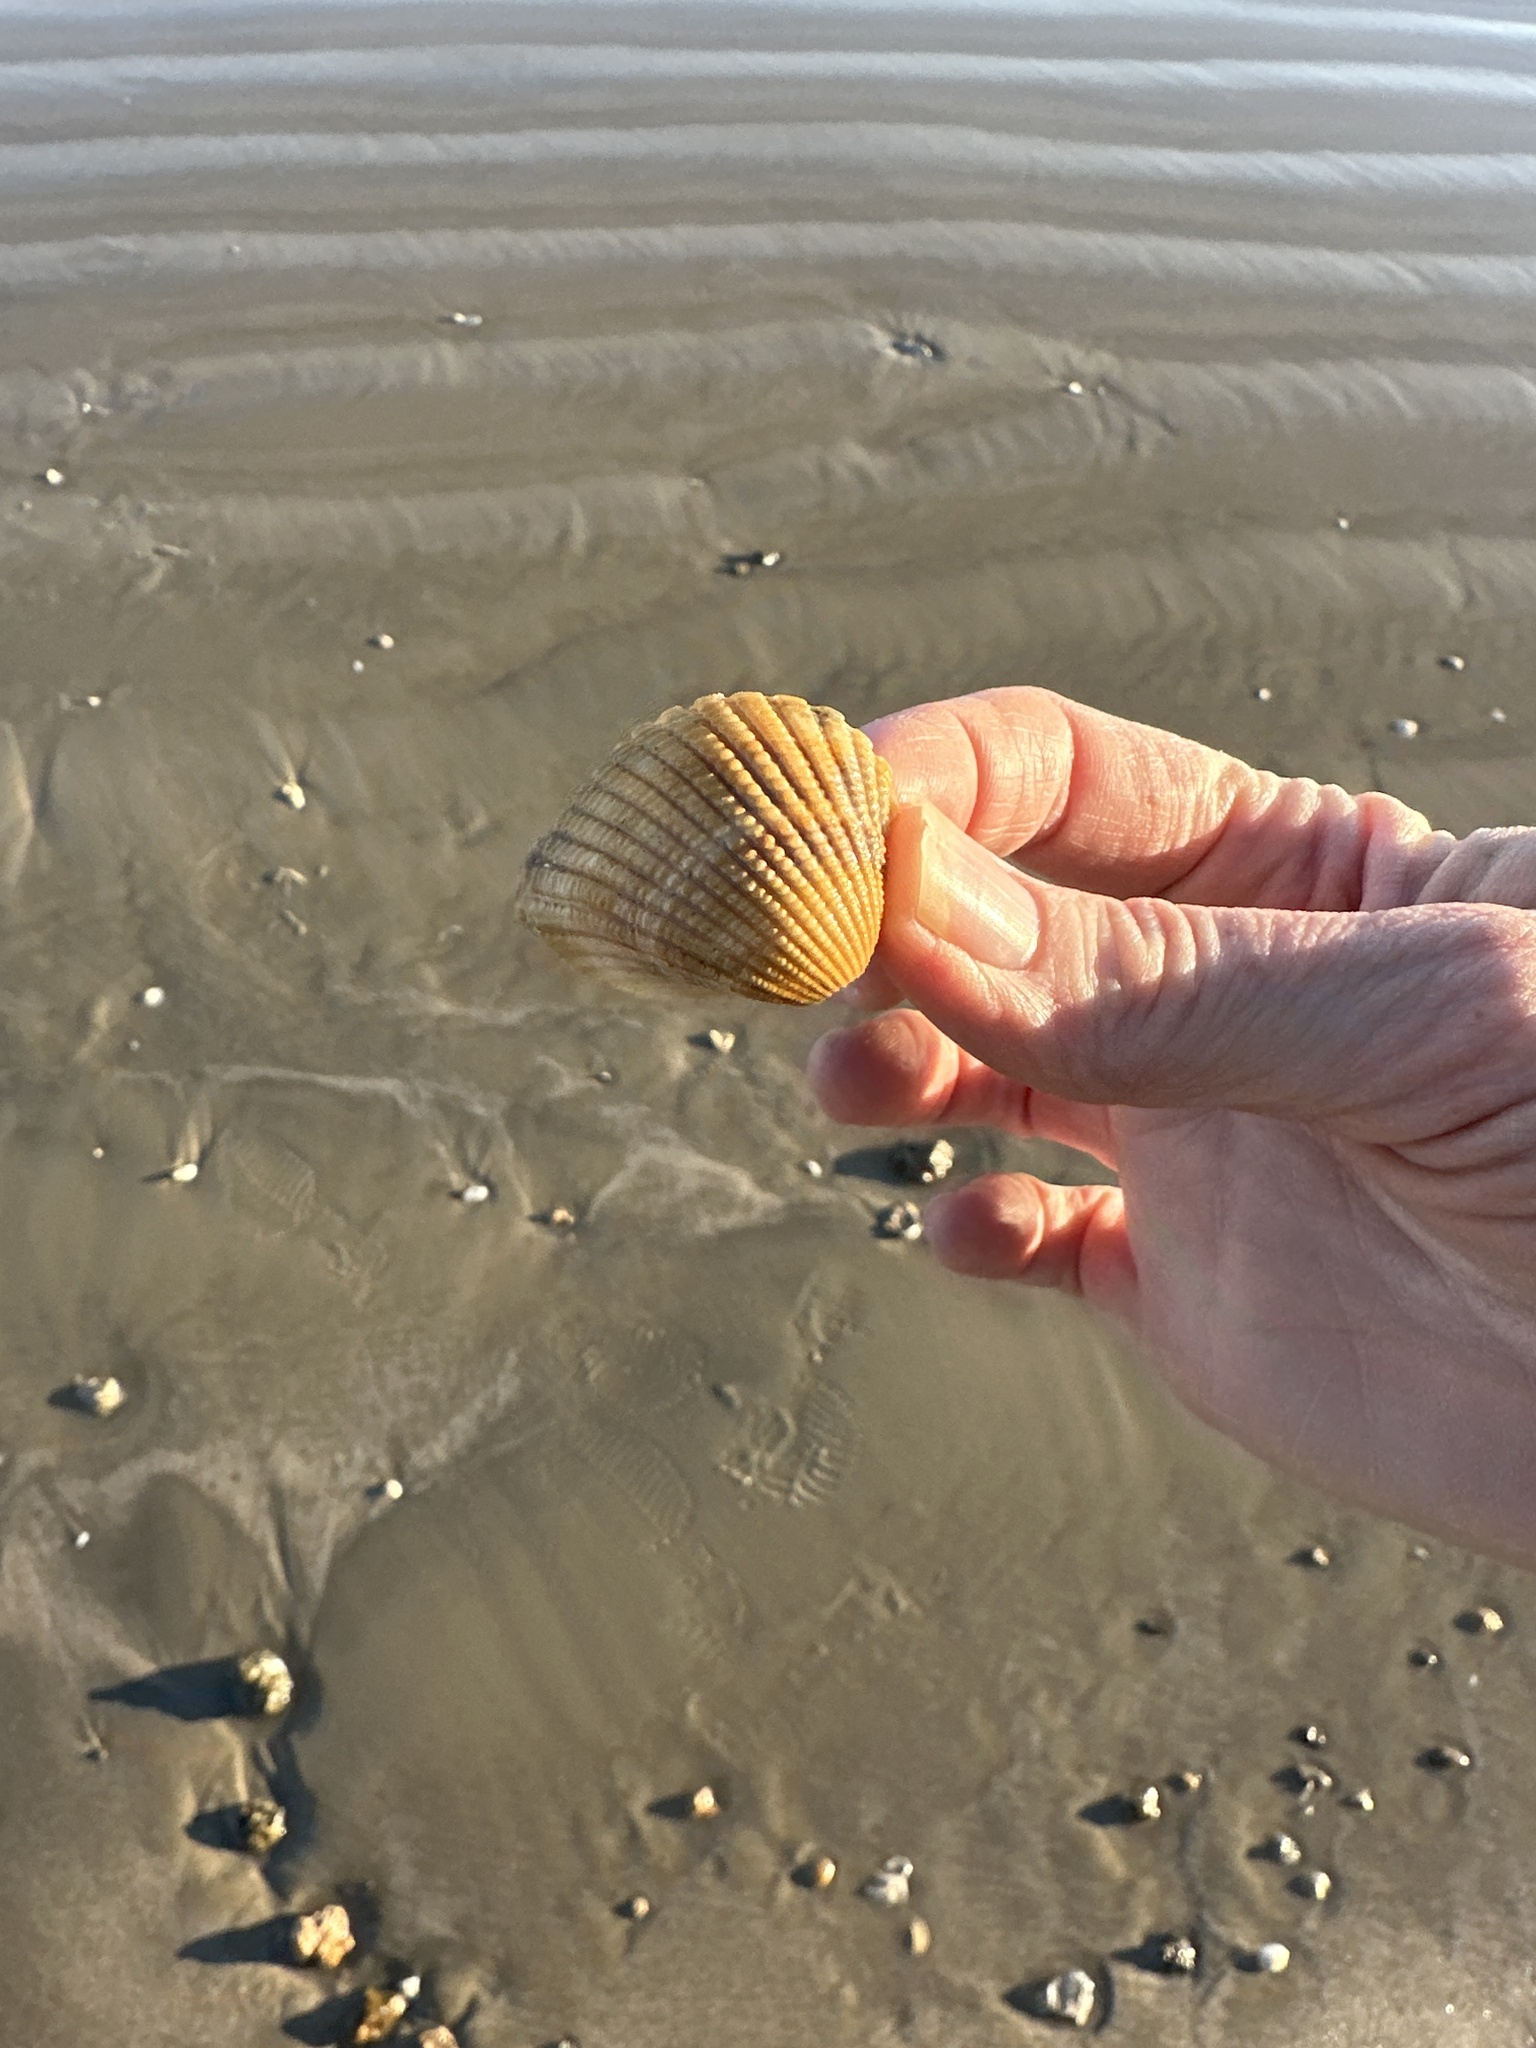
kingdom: Animalia
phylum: Mollusca
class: Bivalvia
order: Arcida
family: Arcidae
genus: Anadara
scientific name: Anadara brasiliana
